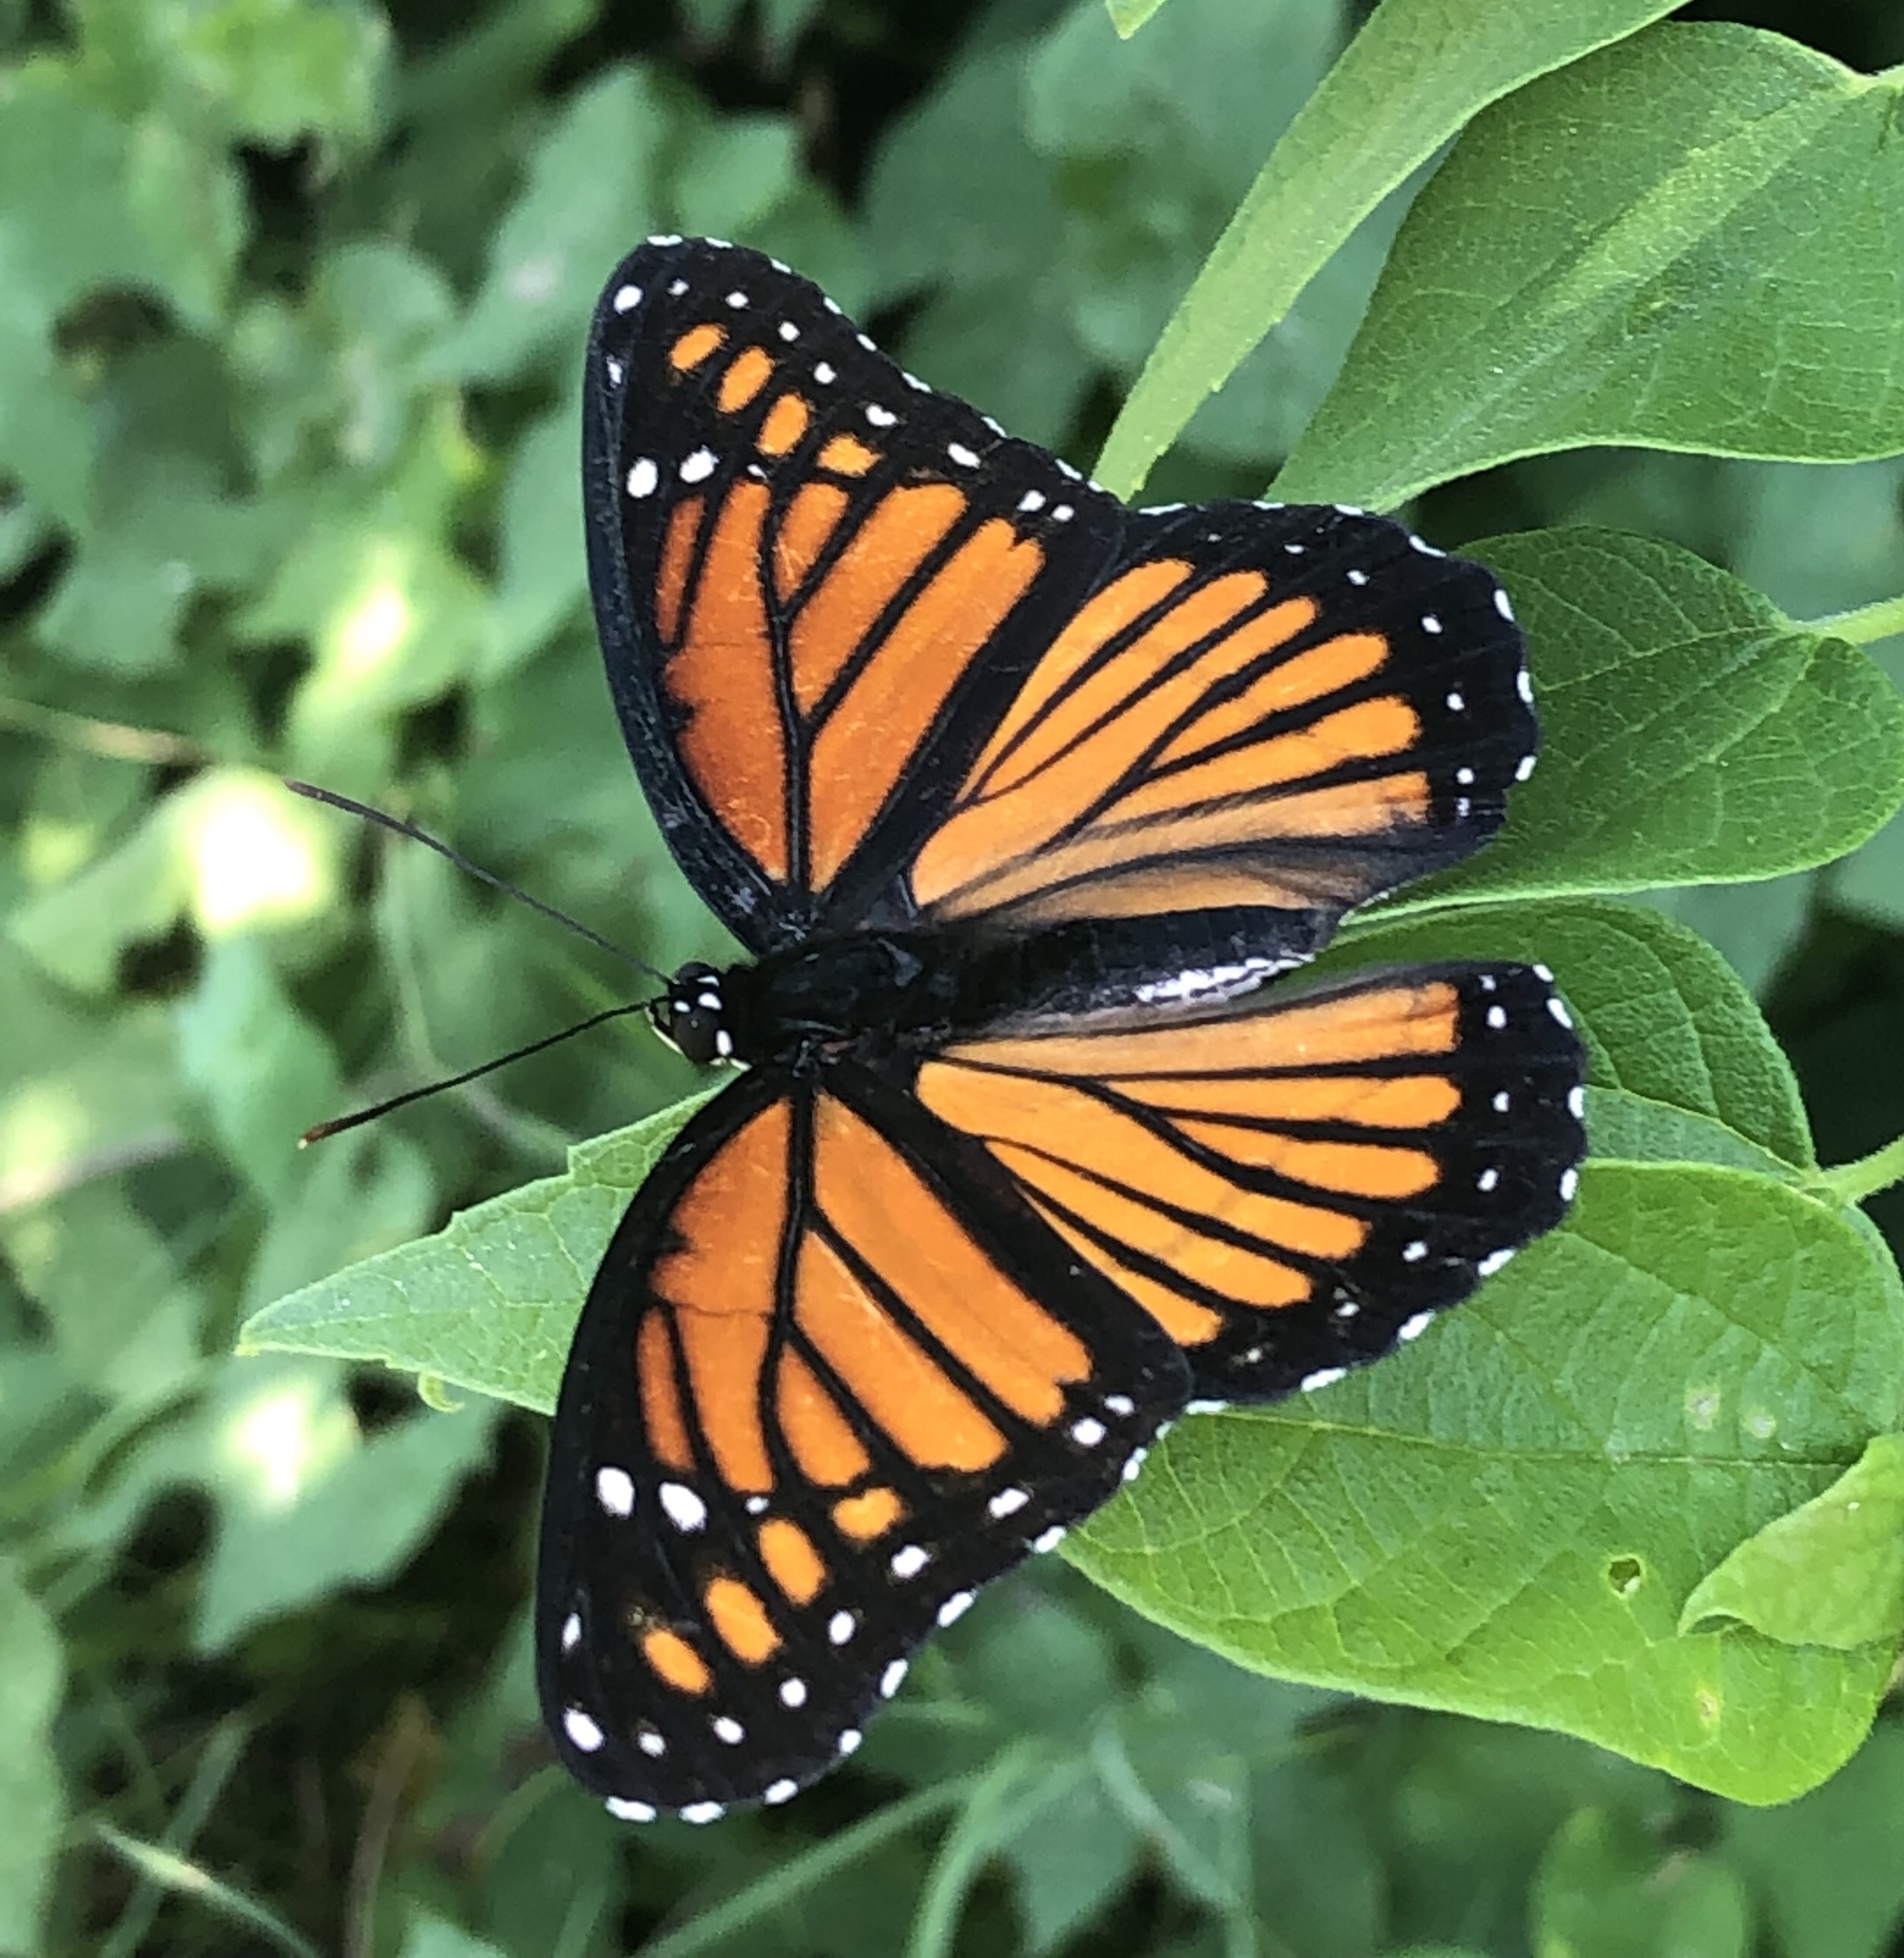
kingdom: Animalia
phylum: Arthropoda
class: Insecta
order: Lepidoptera
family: Nymphalidae
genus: Limenitis
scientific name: Limenitis archippus
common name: Viceroy
